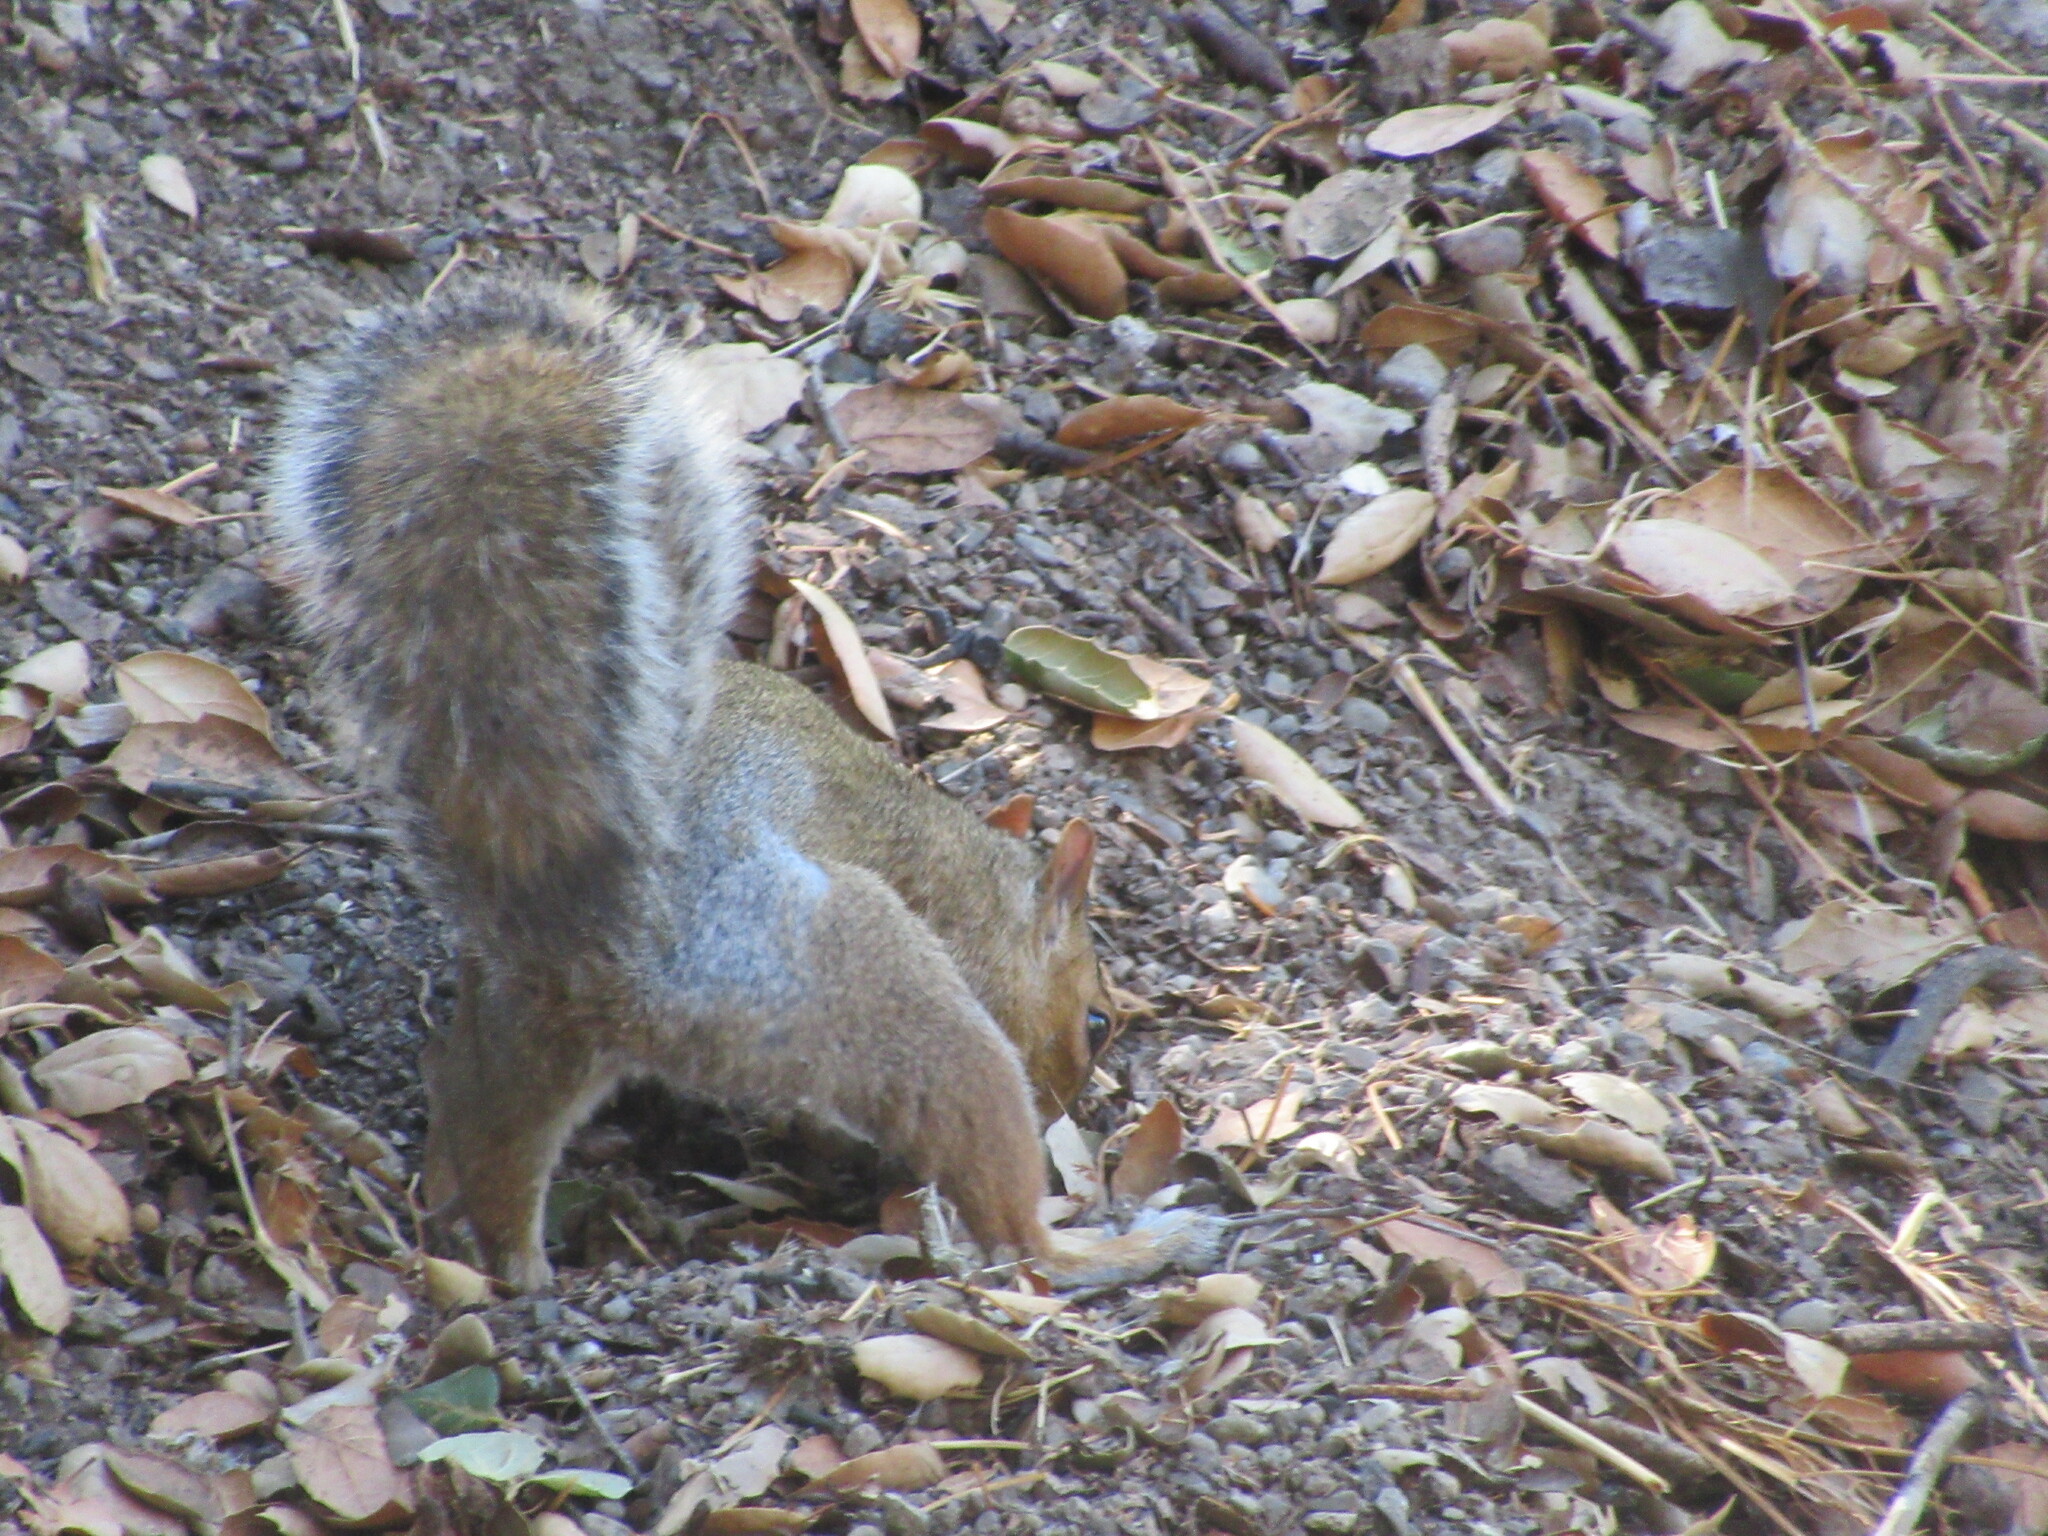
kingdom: Animalia
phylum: Chordata
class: Mammalia
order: Rodentia
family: Sciuridae
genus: Sciurus
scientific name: Sciurus carolinensis
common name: Eastern gray squirrel
